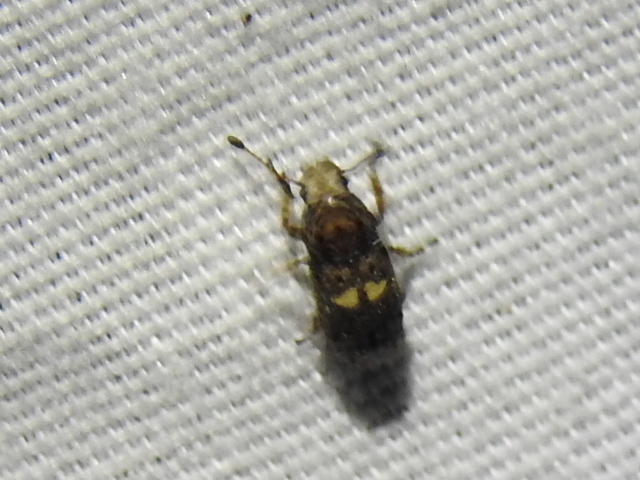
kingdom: Animalia
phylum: Arthropoda
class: Insecta
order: Coleoptera
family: Anthribidae
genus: Toxonotus
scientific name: Toxonotus cornutus
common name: Fungus weevil
